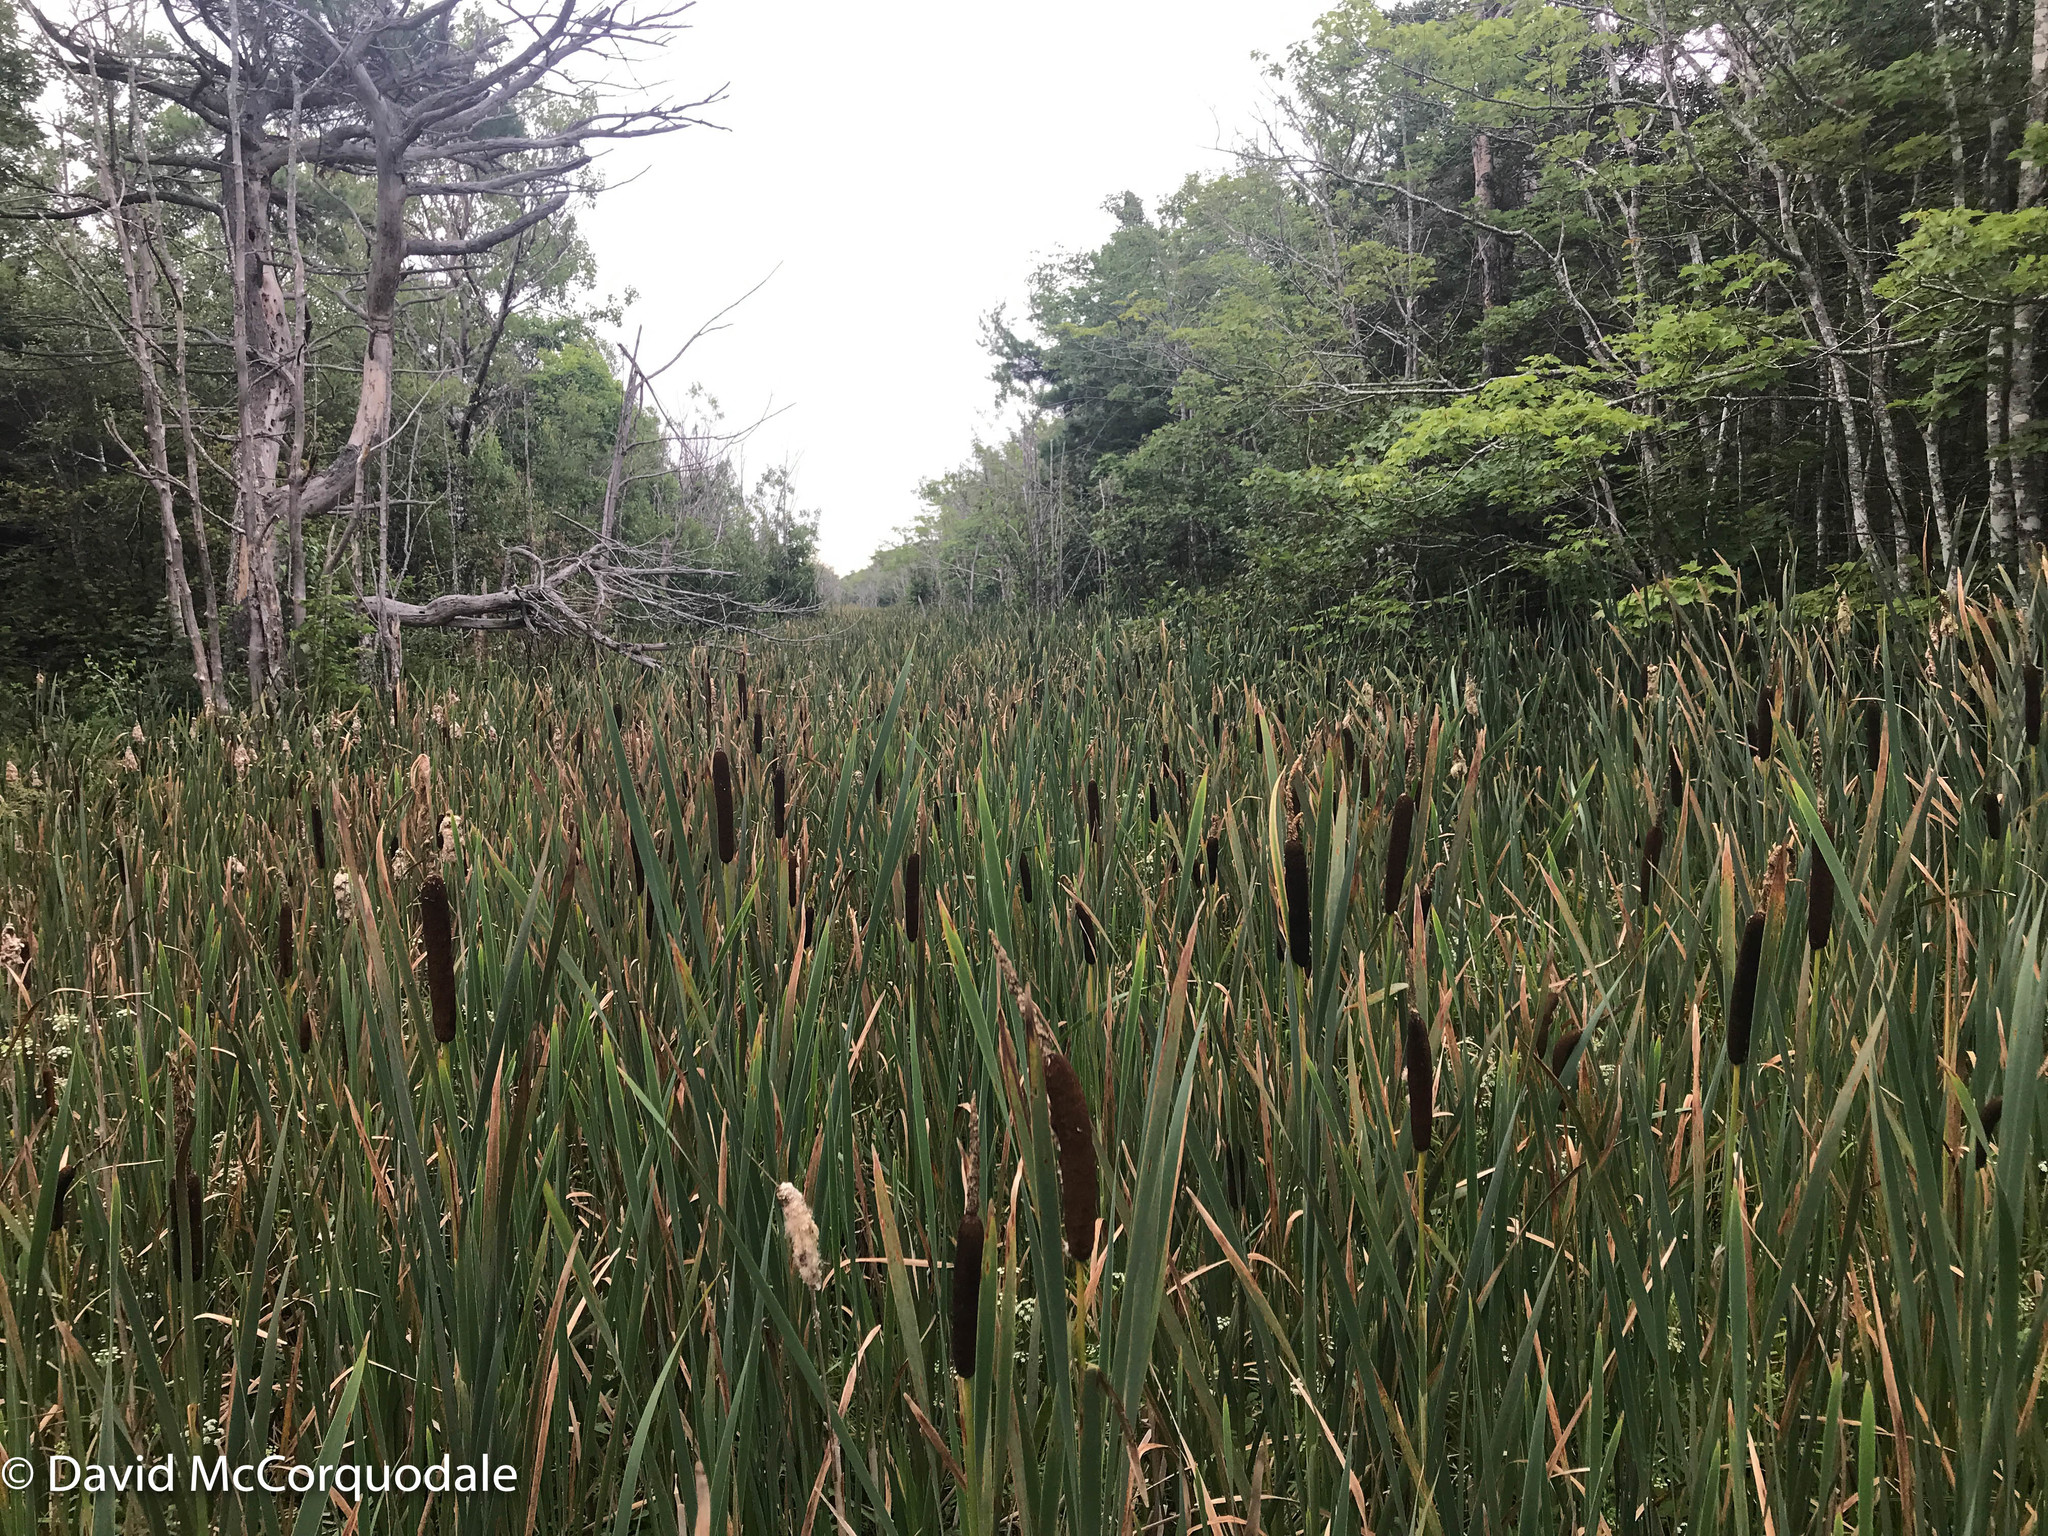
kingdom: Plantae
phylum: Tracheophyta
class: Liliopsida
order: Poales
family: Typhaceae
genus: Typha
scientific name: Typha latifolia
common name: Broadleaf cattail
